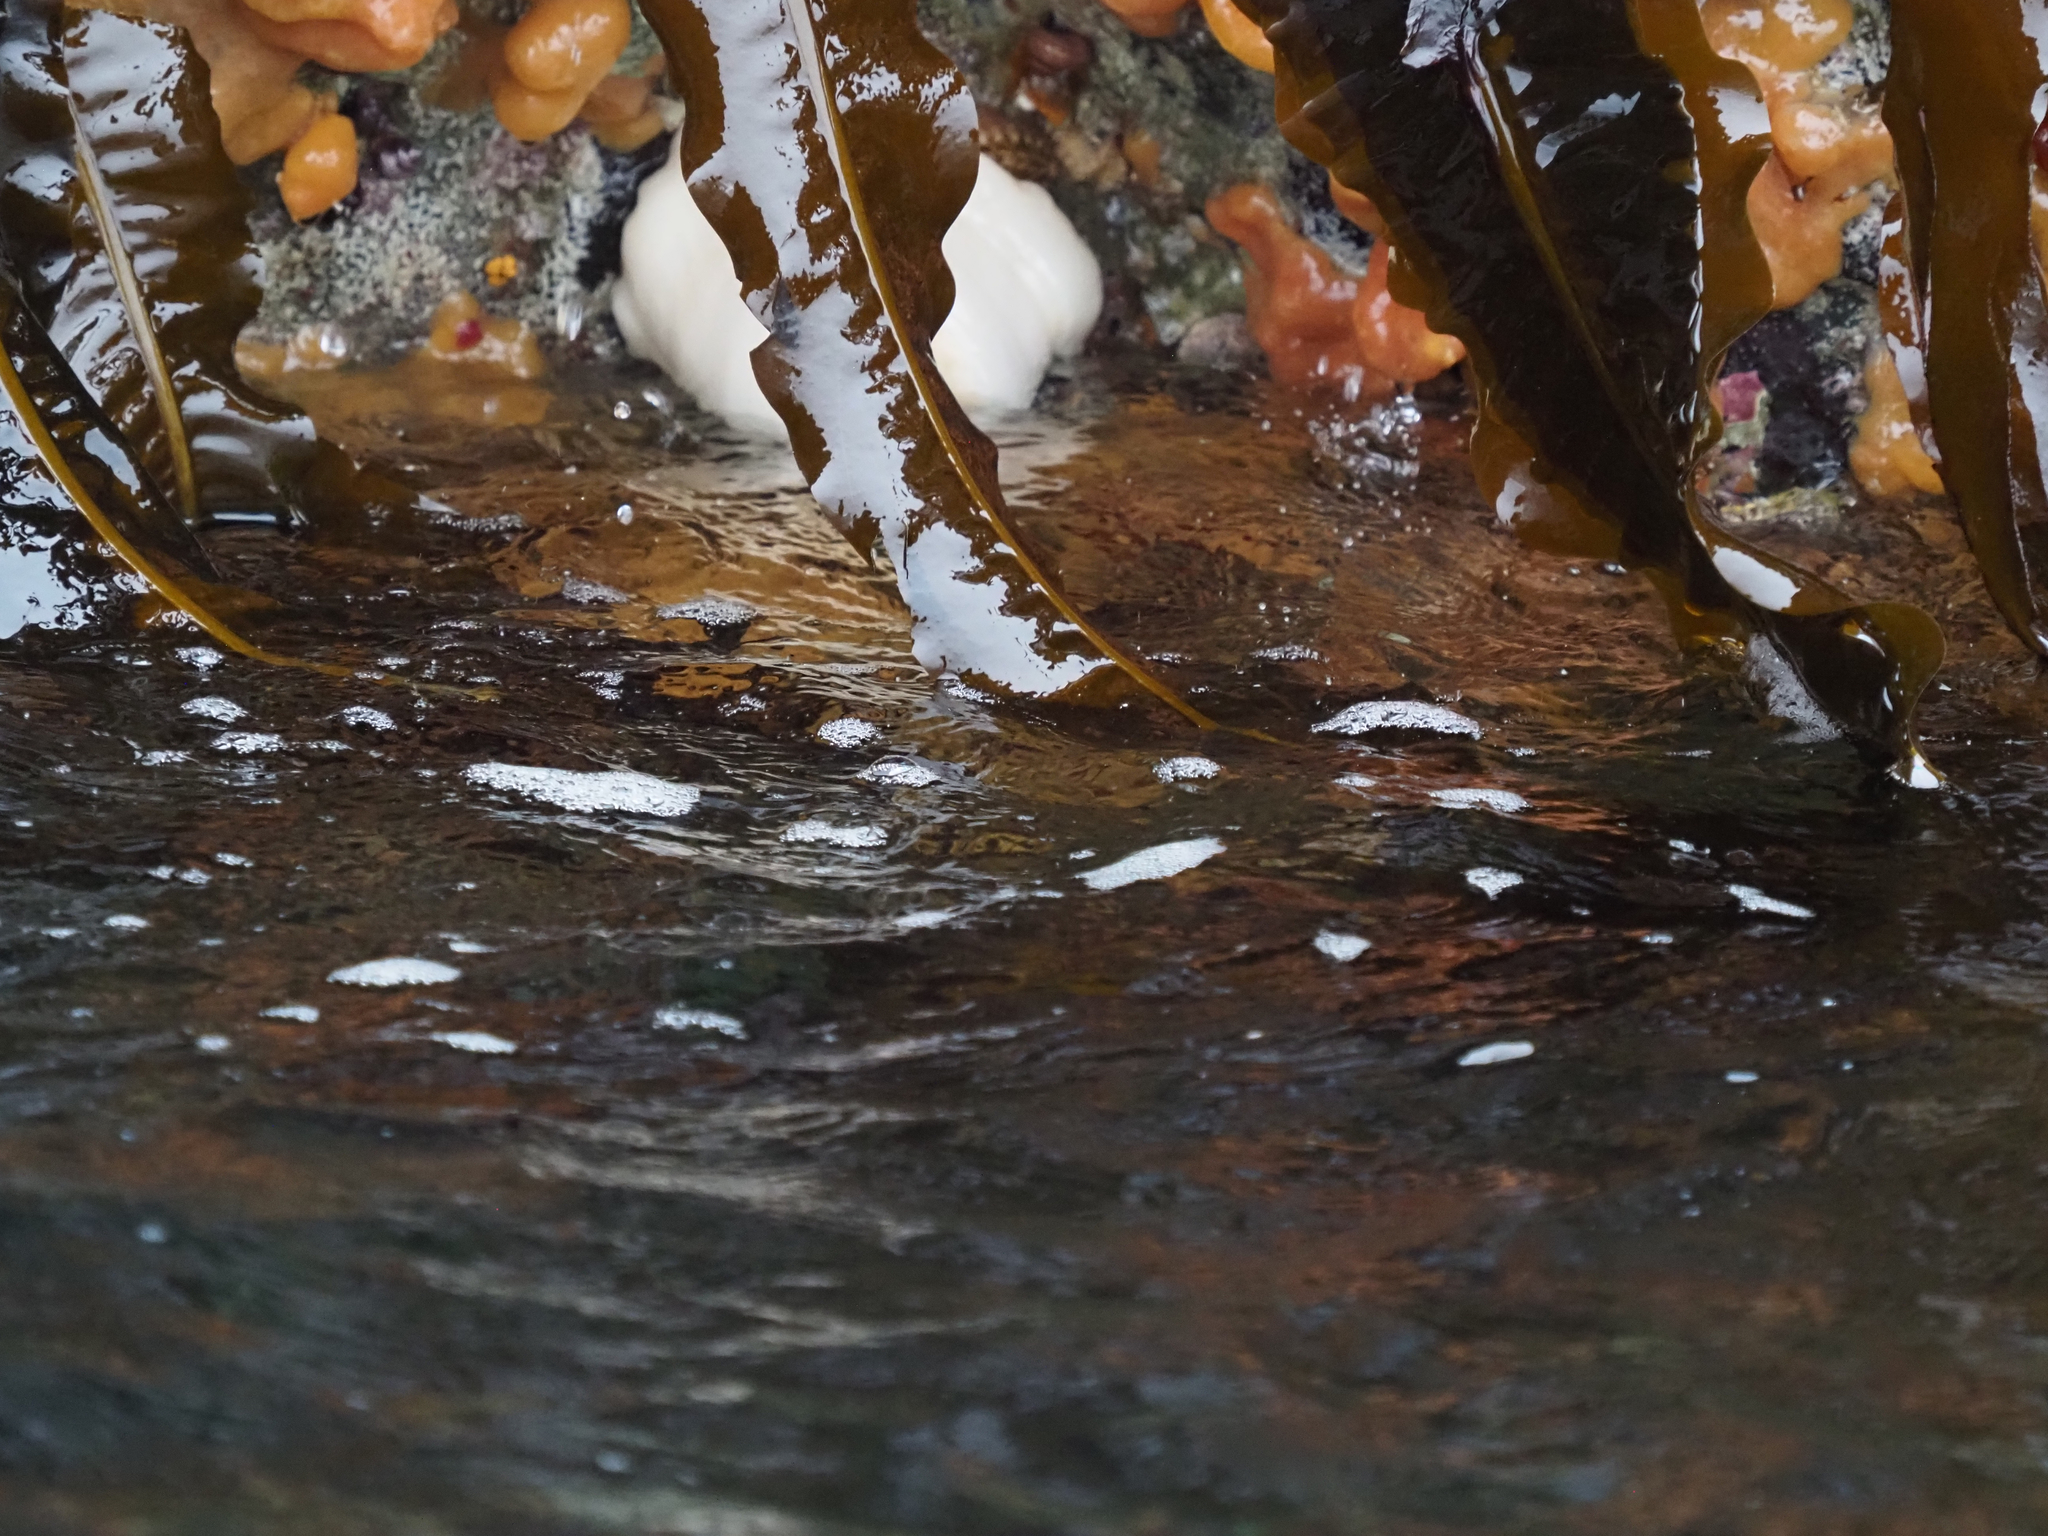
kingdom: Chromista
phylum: Ochrophyta
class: Phaeophyceae
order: Laminariales
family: Alariaceae
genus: Alaria
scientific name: Alaria marginata
